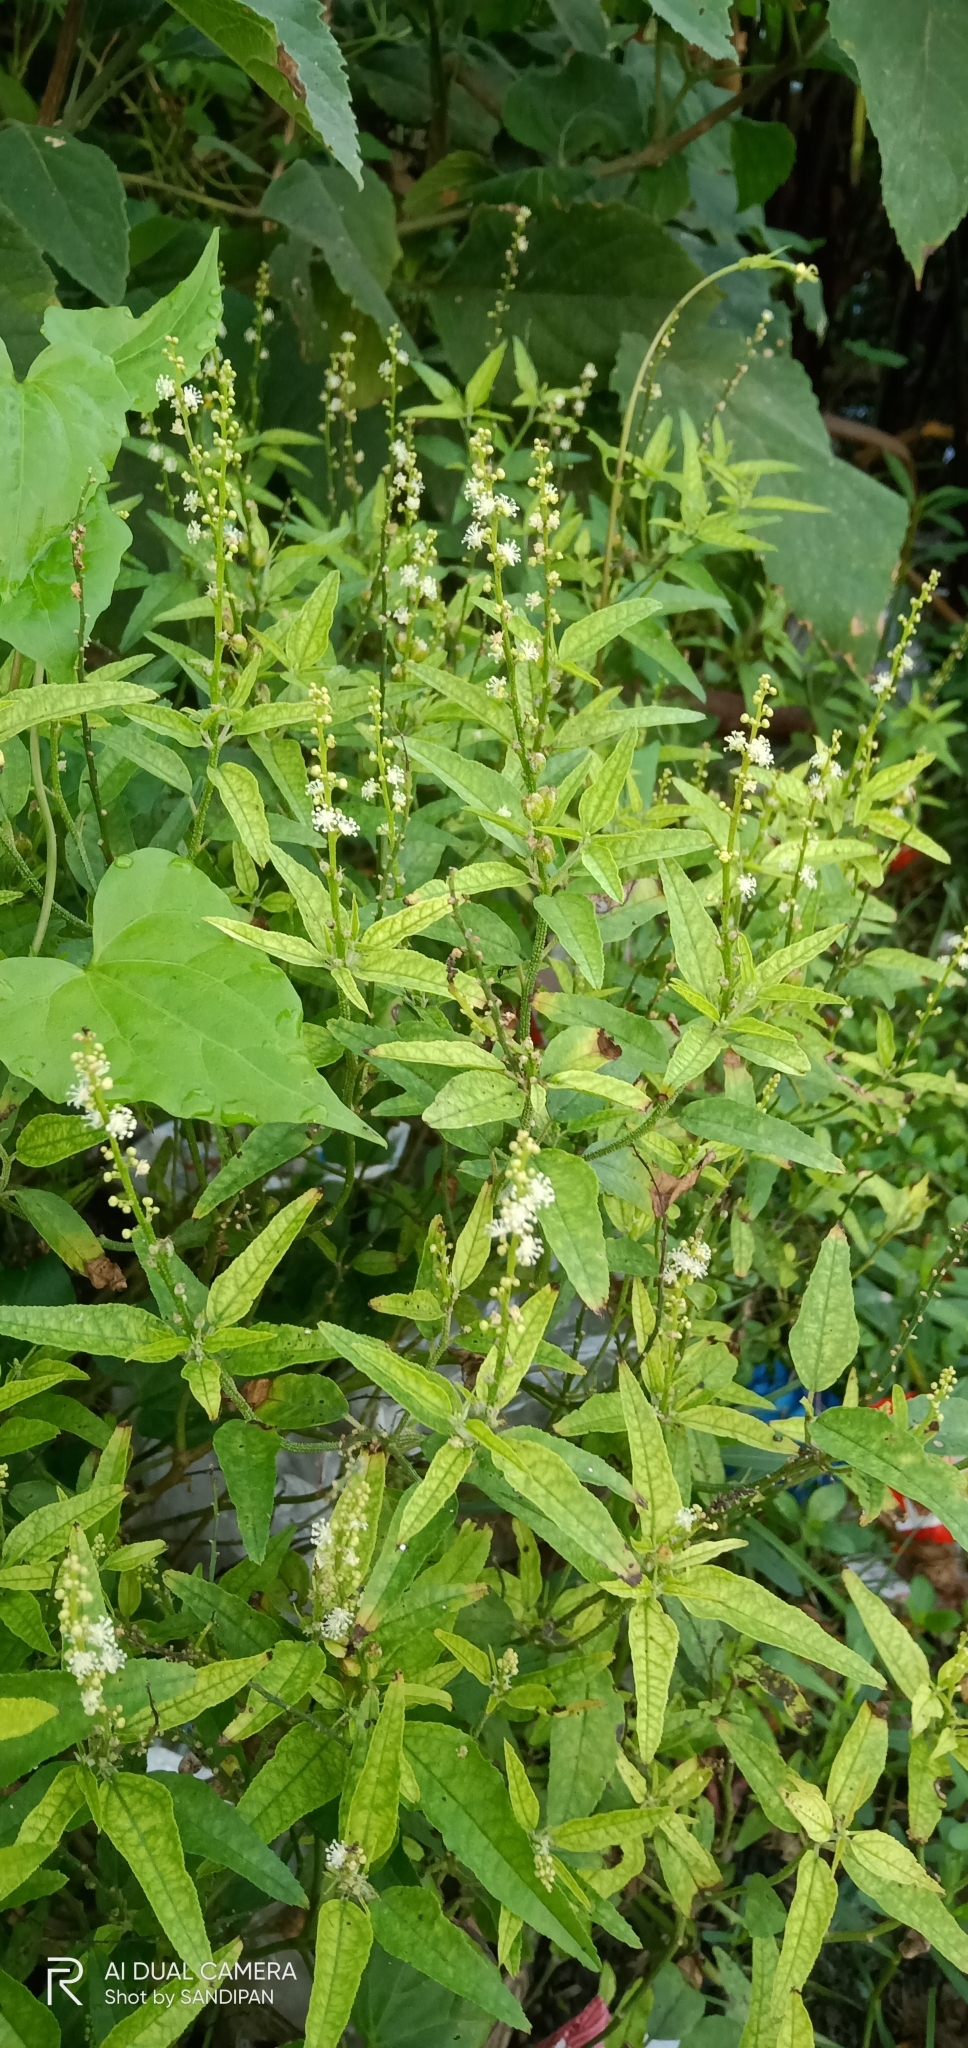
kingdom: Plantae
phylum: Tracheophyta
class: Magnoliopsida
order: Malpighiales
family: Euphorbiaceae
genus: Croton
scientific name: Croton bonplandianus
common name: Bonpland's croton
